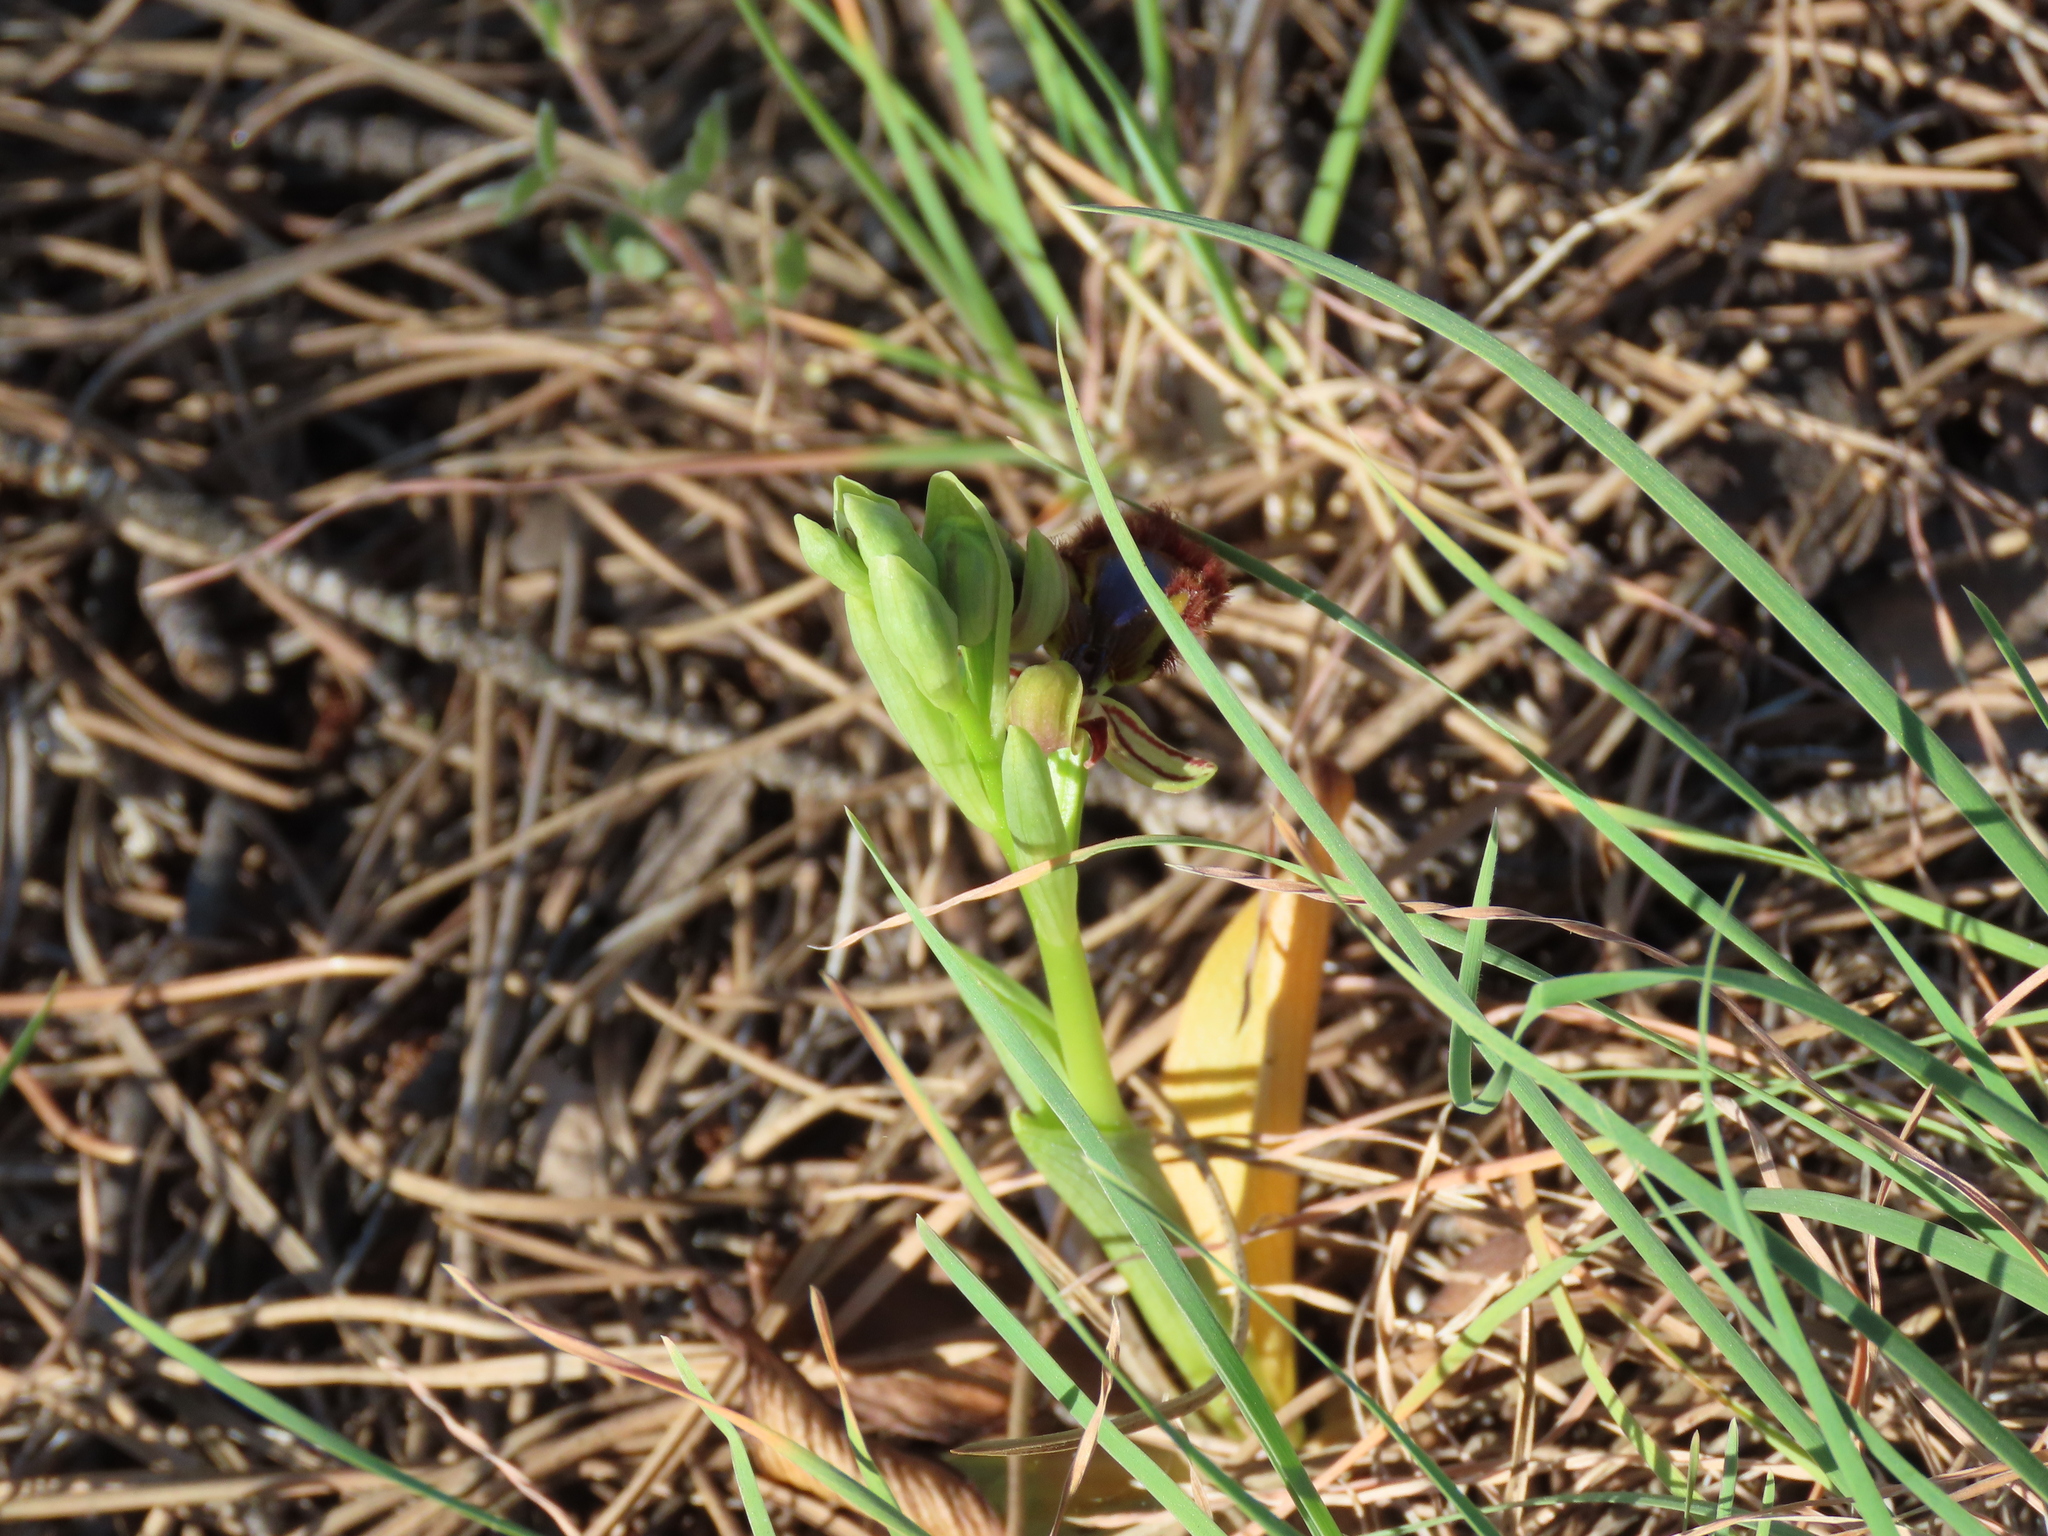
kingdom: Plantae
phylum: Tracheophyta
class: Liliopsida
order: Asparagales
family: Orchidaceae
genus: Ophrys
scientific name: Ophrys speculum
